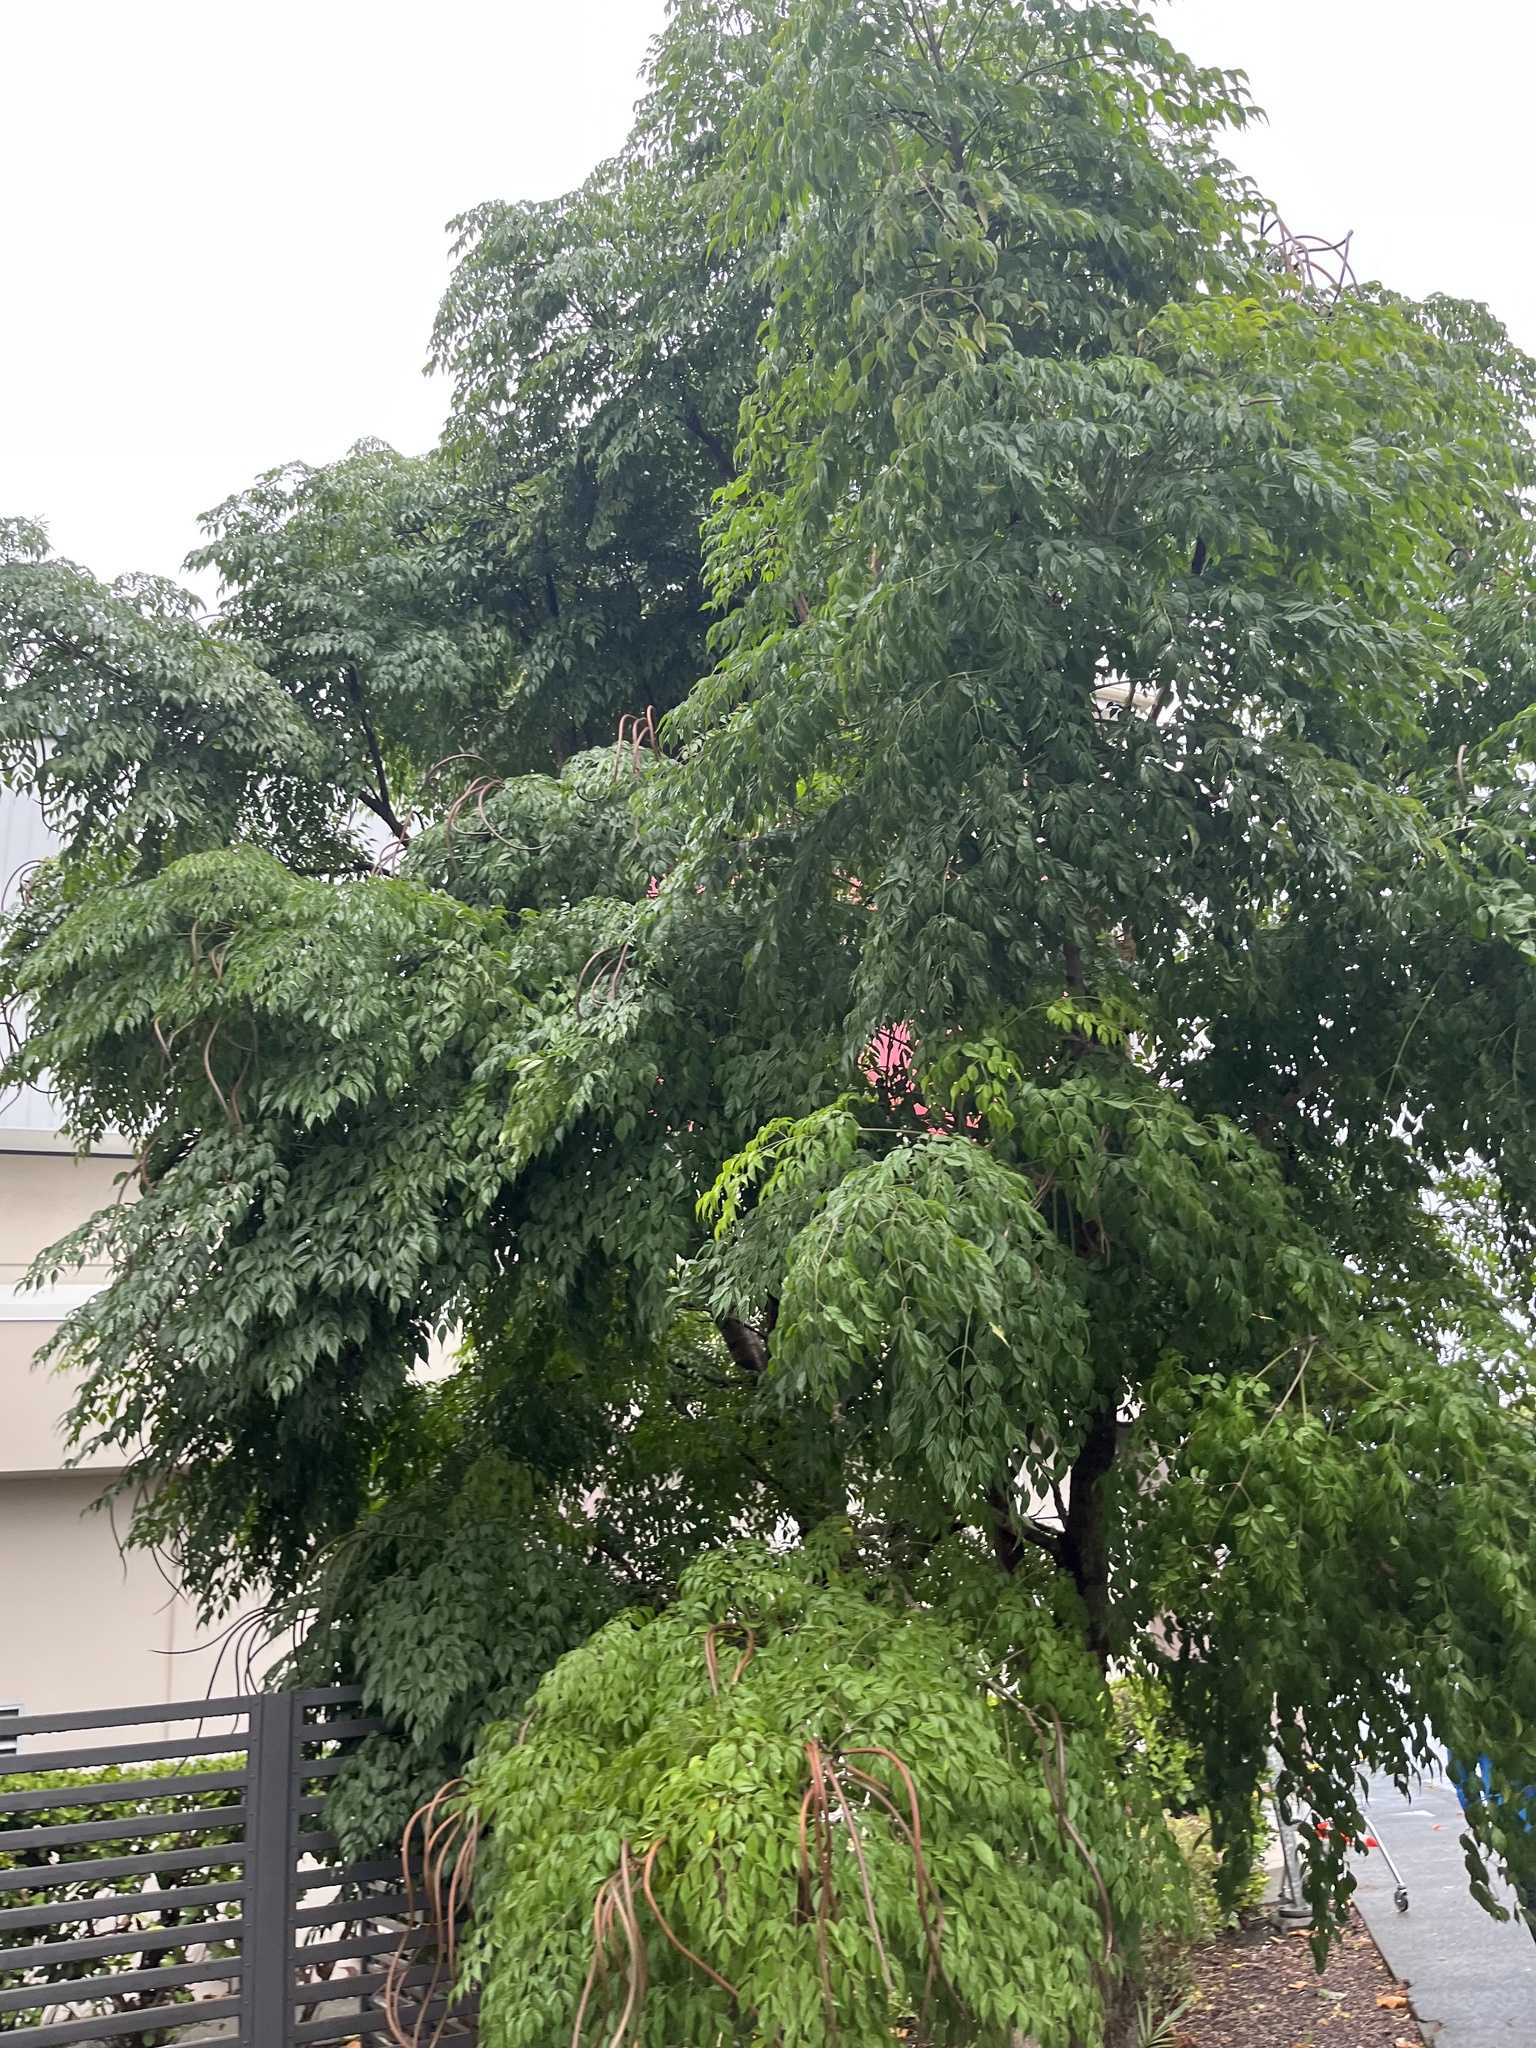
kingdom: Plantae
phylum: Tracheophyta
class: Magnoliopsida
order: Lamiales
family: Bignoniaceae
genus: Radermachera
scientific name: Radermachera sinica
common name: China doll plant
